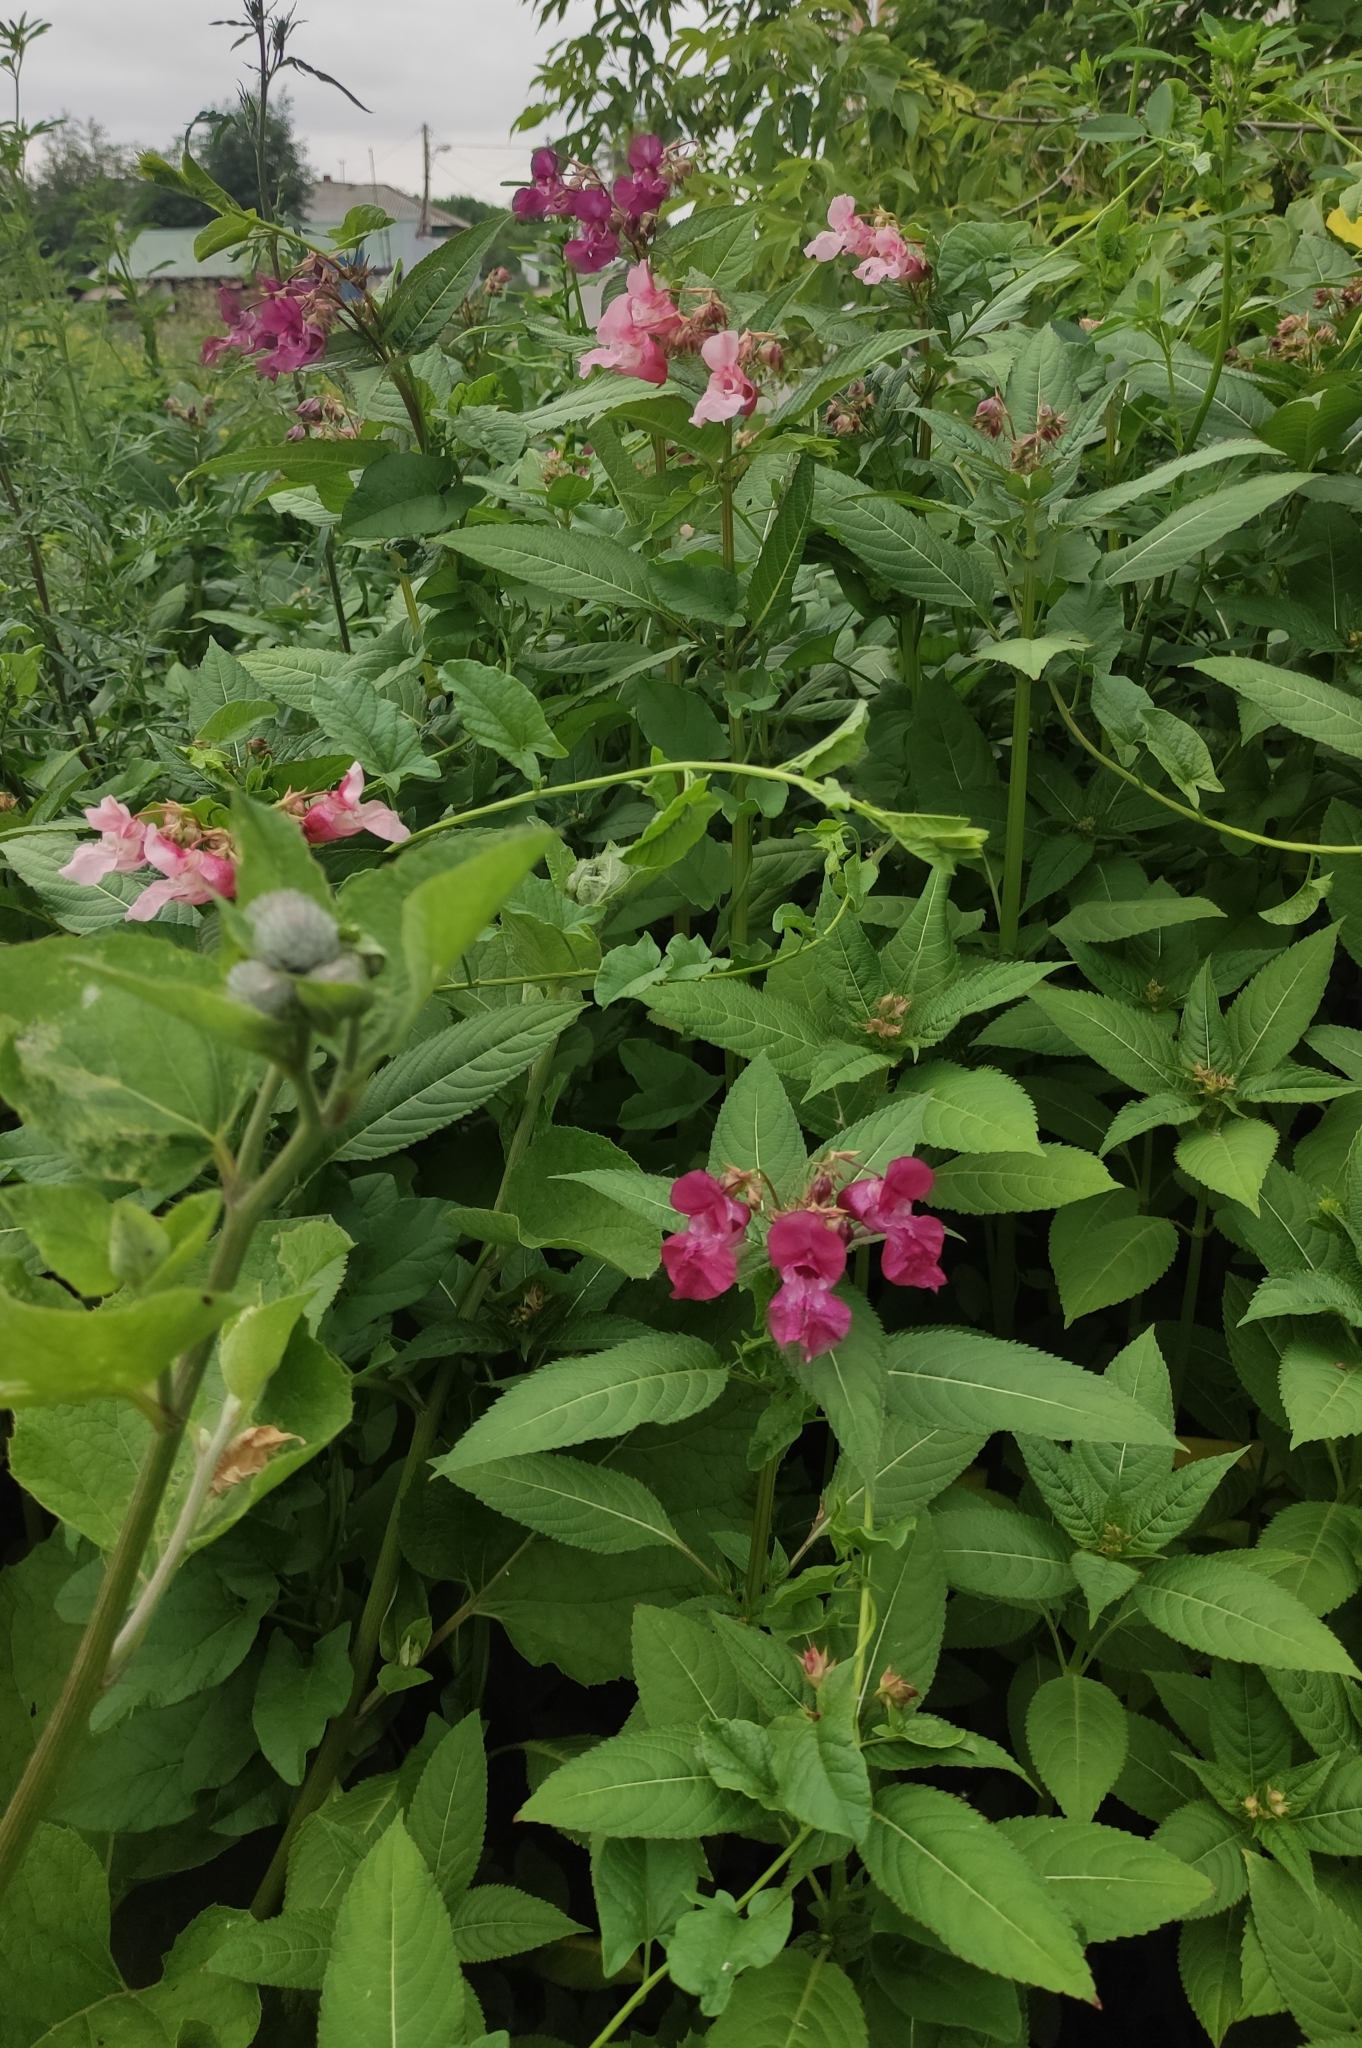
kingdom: Plantae
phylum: Tracheophyta
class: Magnoliopsida
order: Ericales
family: Balsaminaceae
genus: Impatiens
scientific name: Impatiens glandulifera
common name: Himalayan balsam
